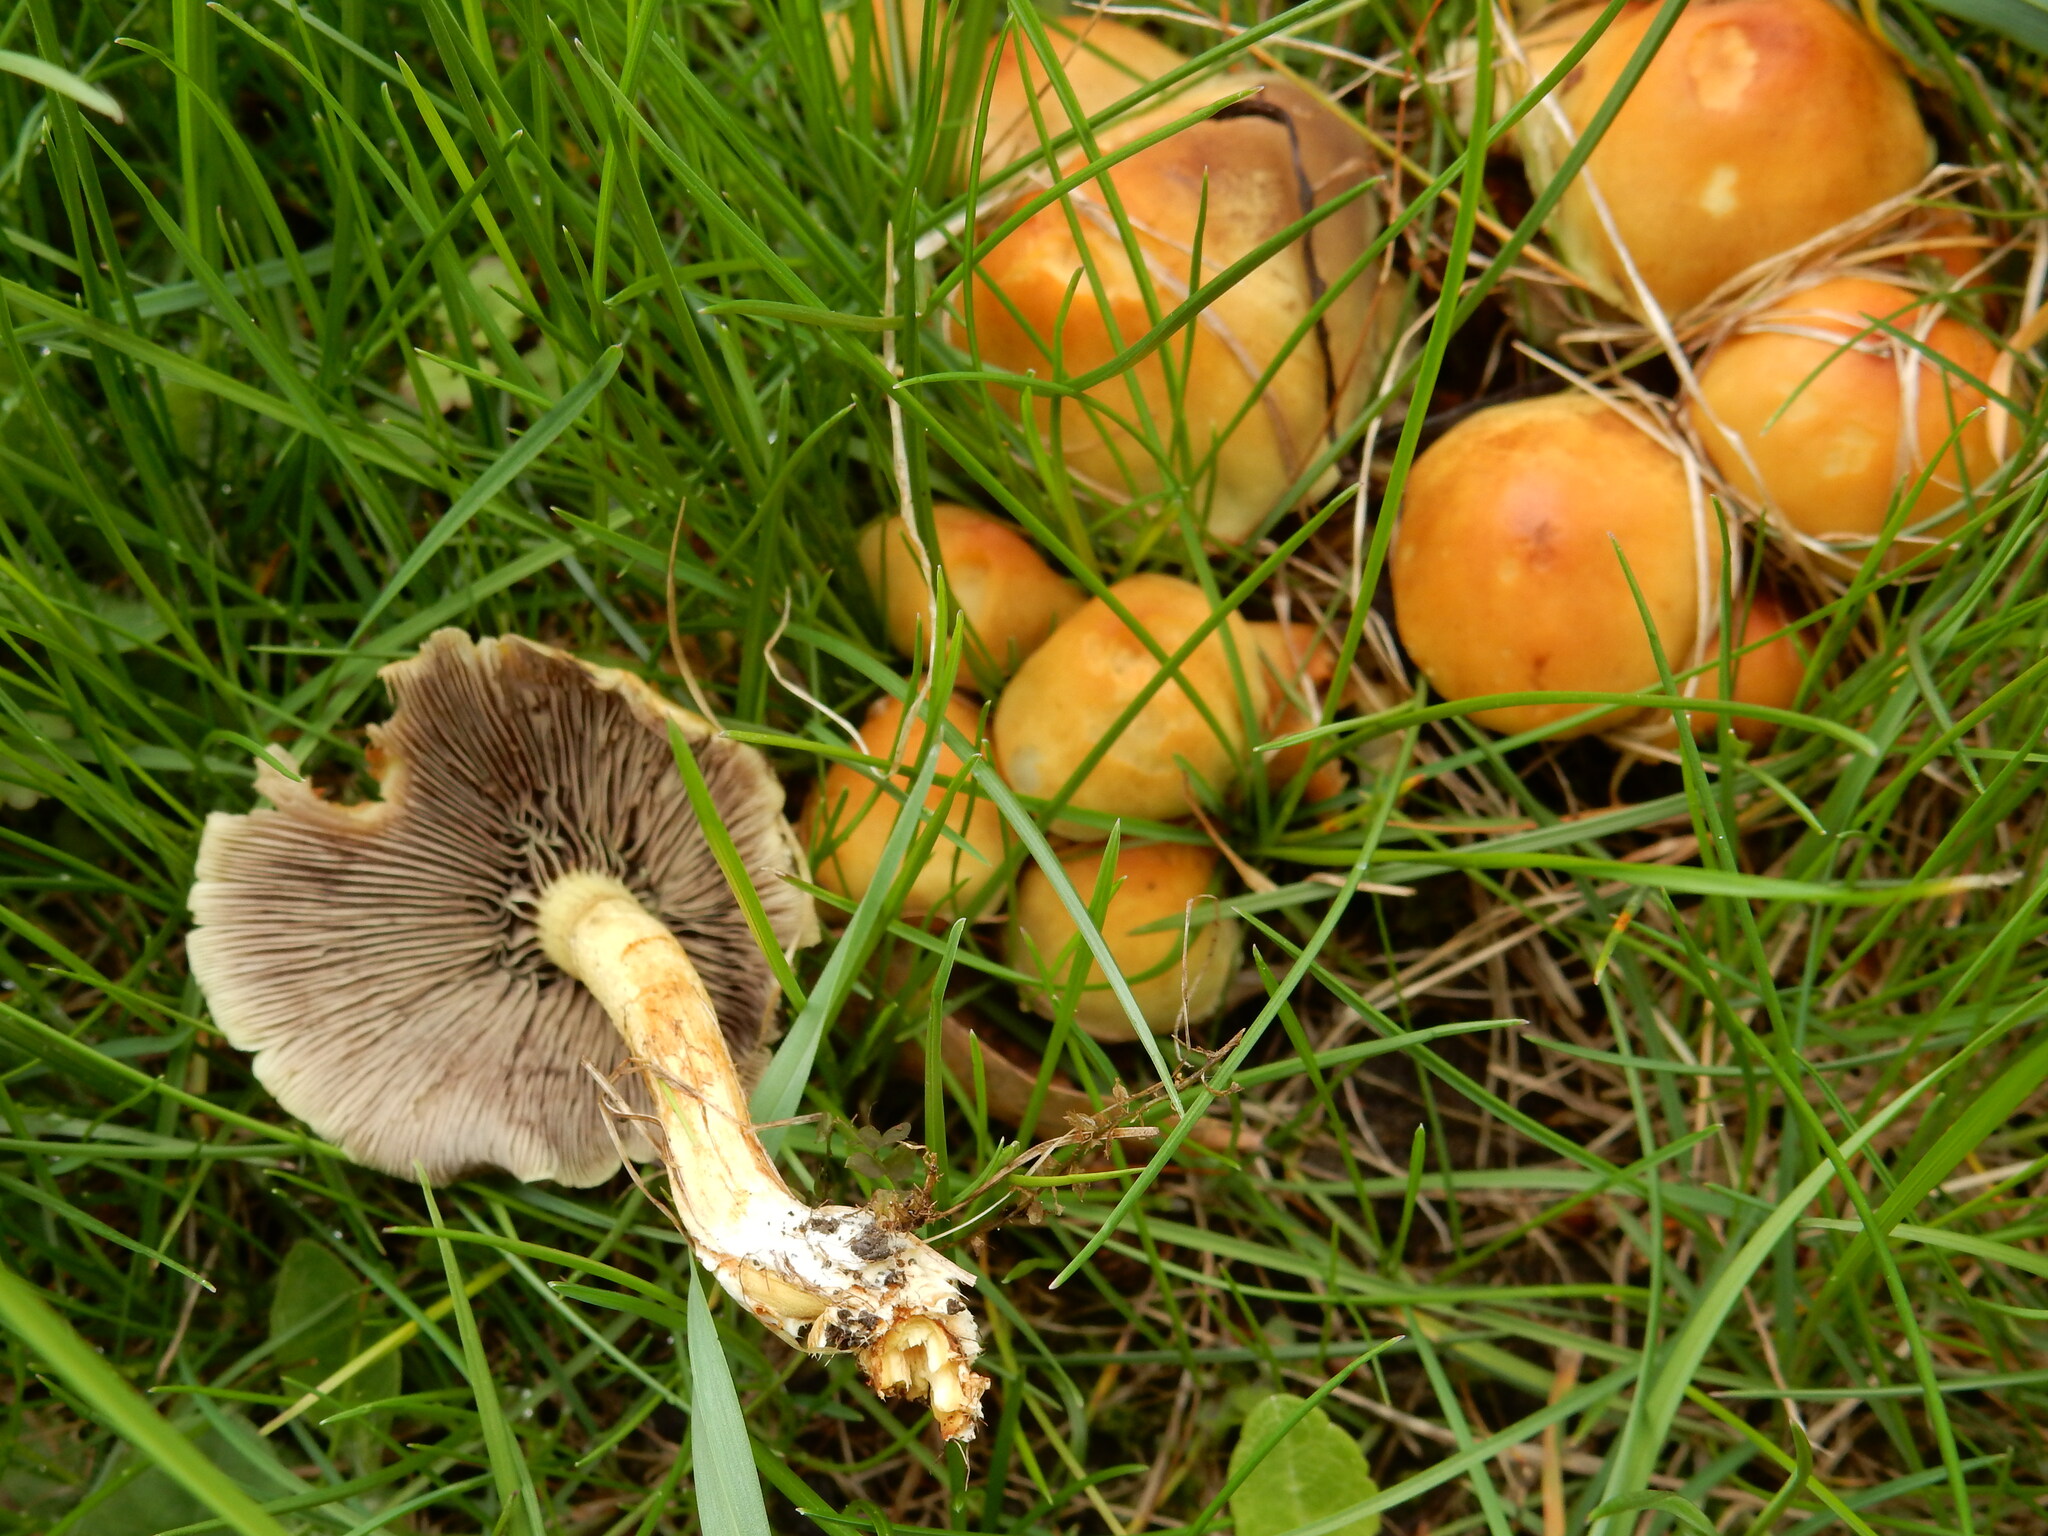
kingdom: Fungi
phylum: Basidiomycota
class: Agaricomycetes
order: Agaricales
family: Strophariaceae
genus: Hypholoma
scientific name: Hypholoma fasciculare
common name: Sulphur tuft
